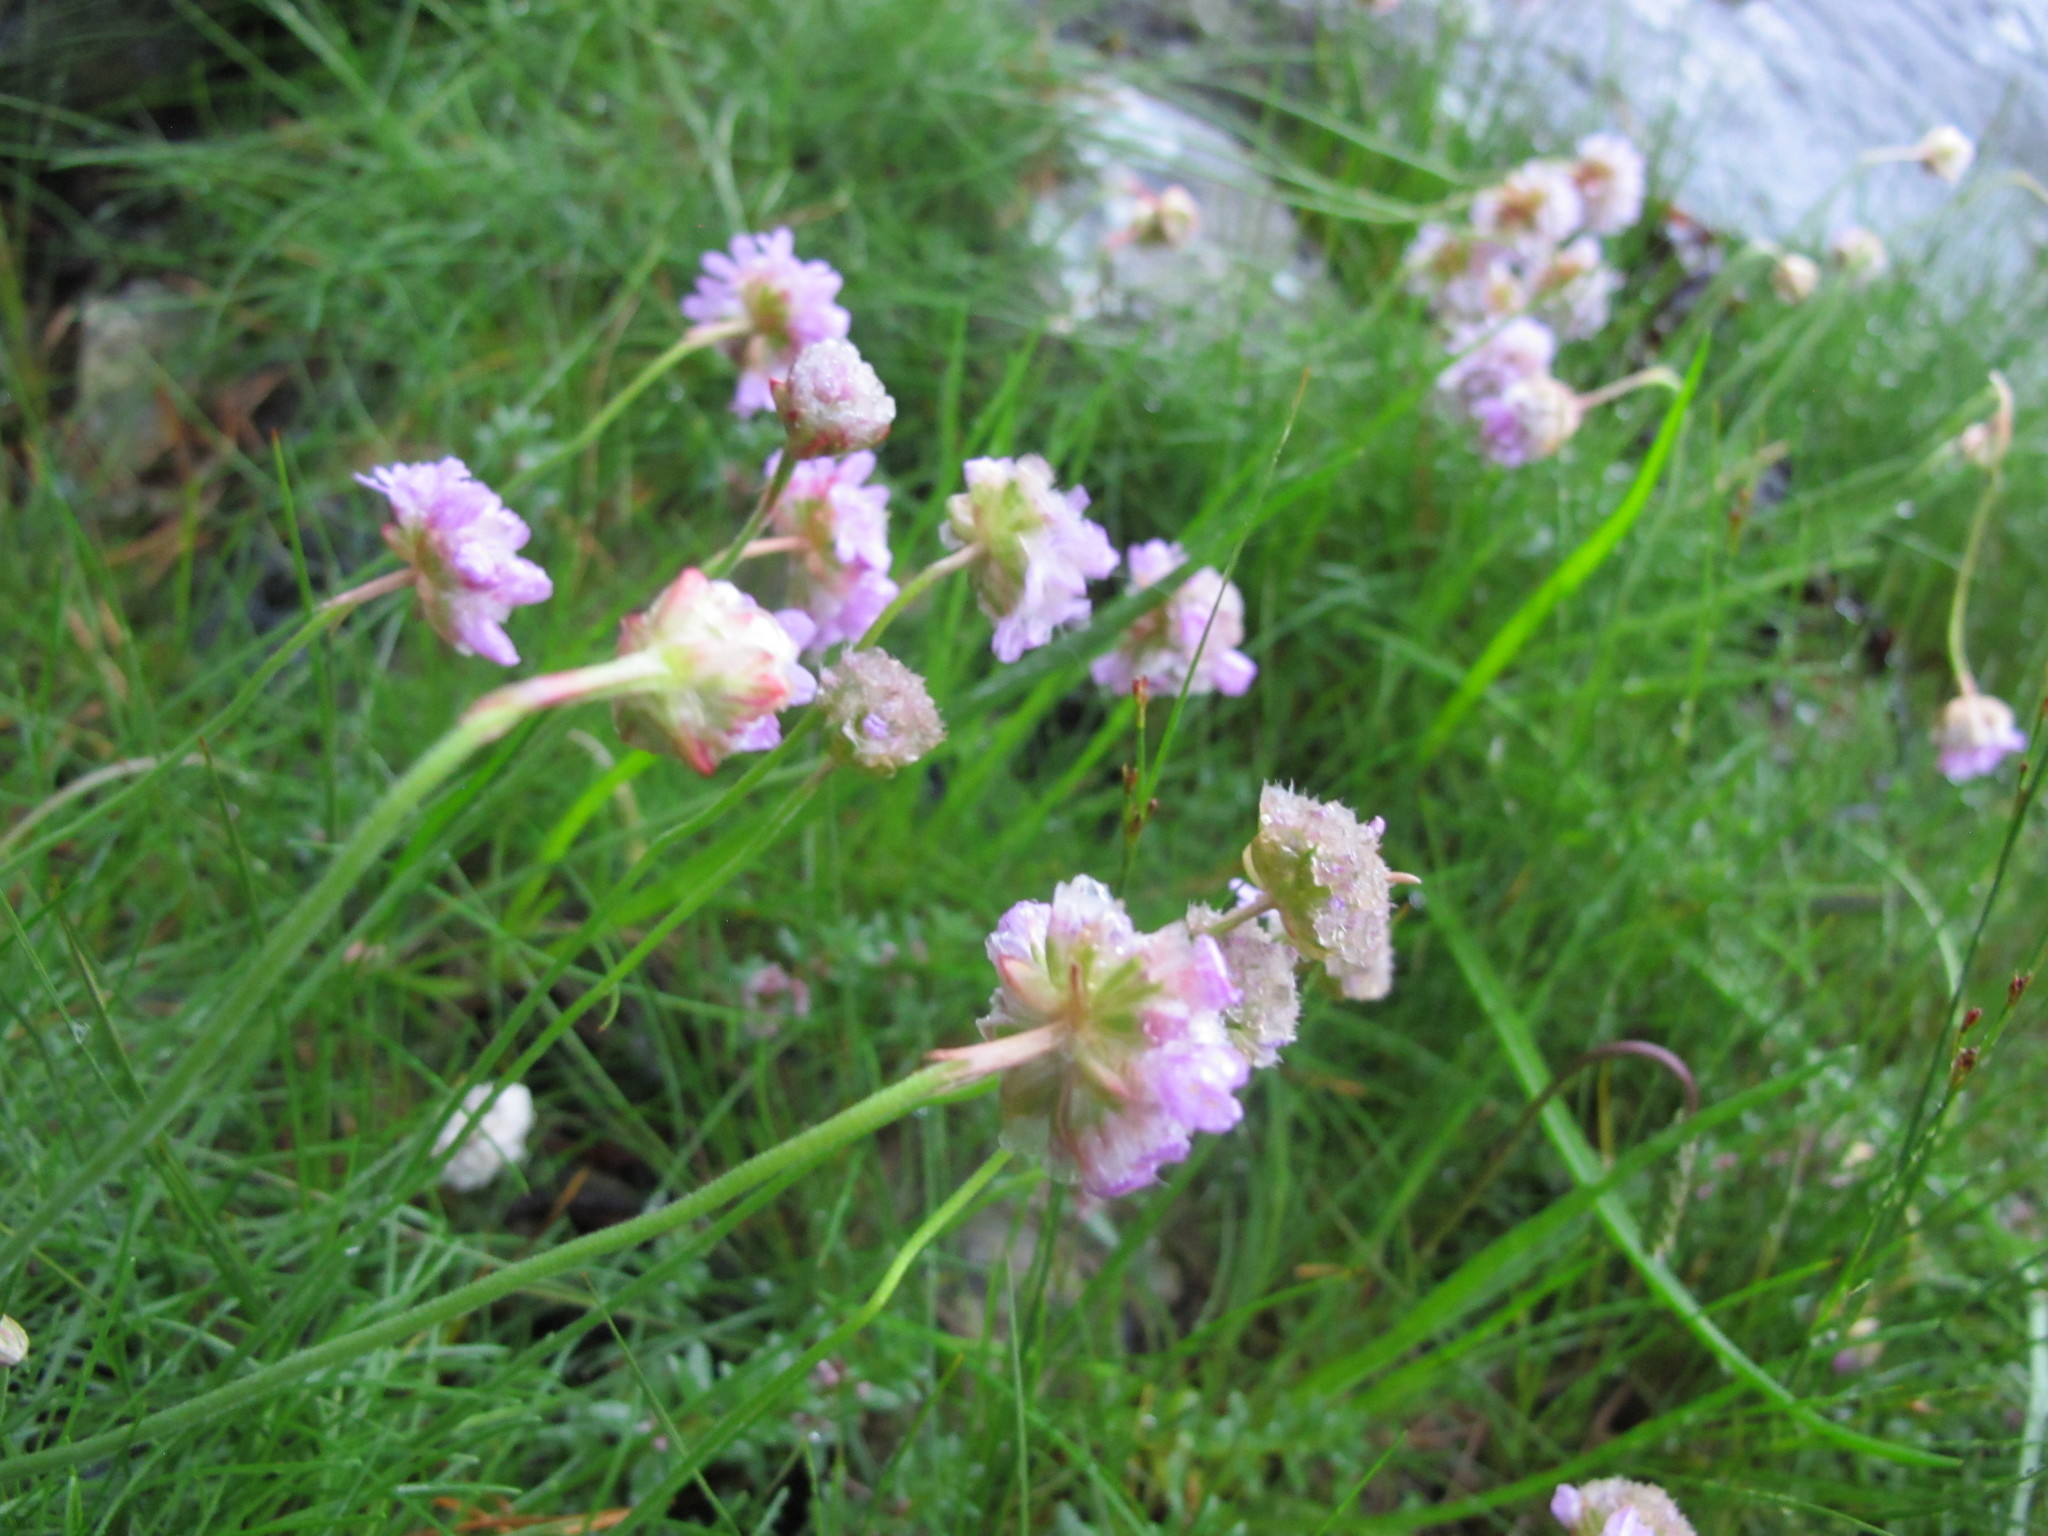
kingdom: Plantae
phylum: Tracheophyta
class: Magnoliopsida
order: Caryophyllales
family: Plumbaginaceae
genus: Armeria
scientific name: Armeria maritima
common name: Thrift
